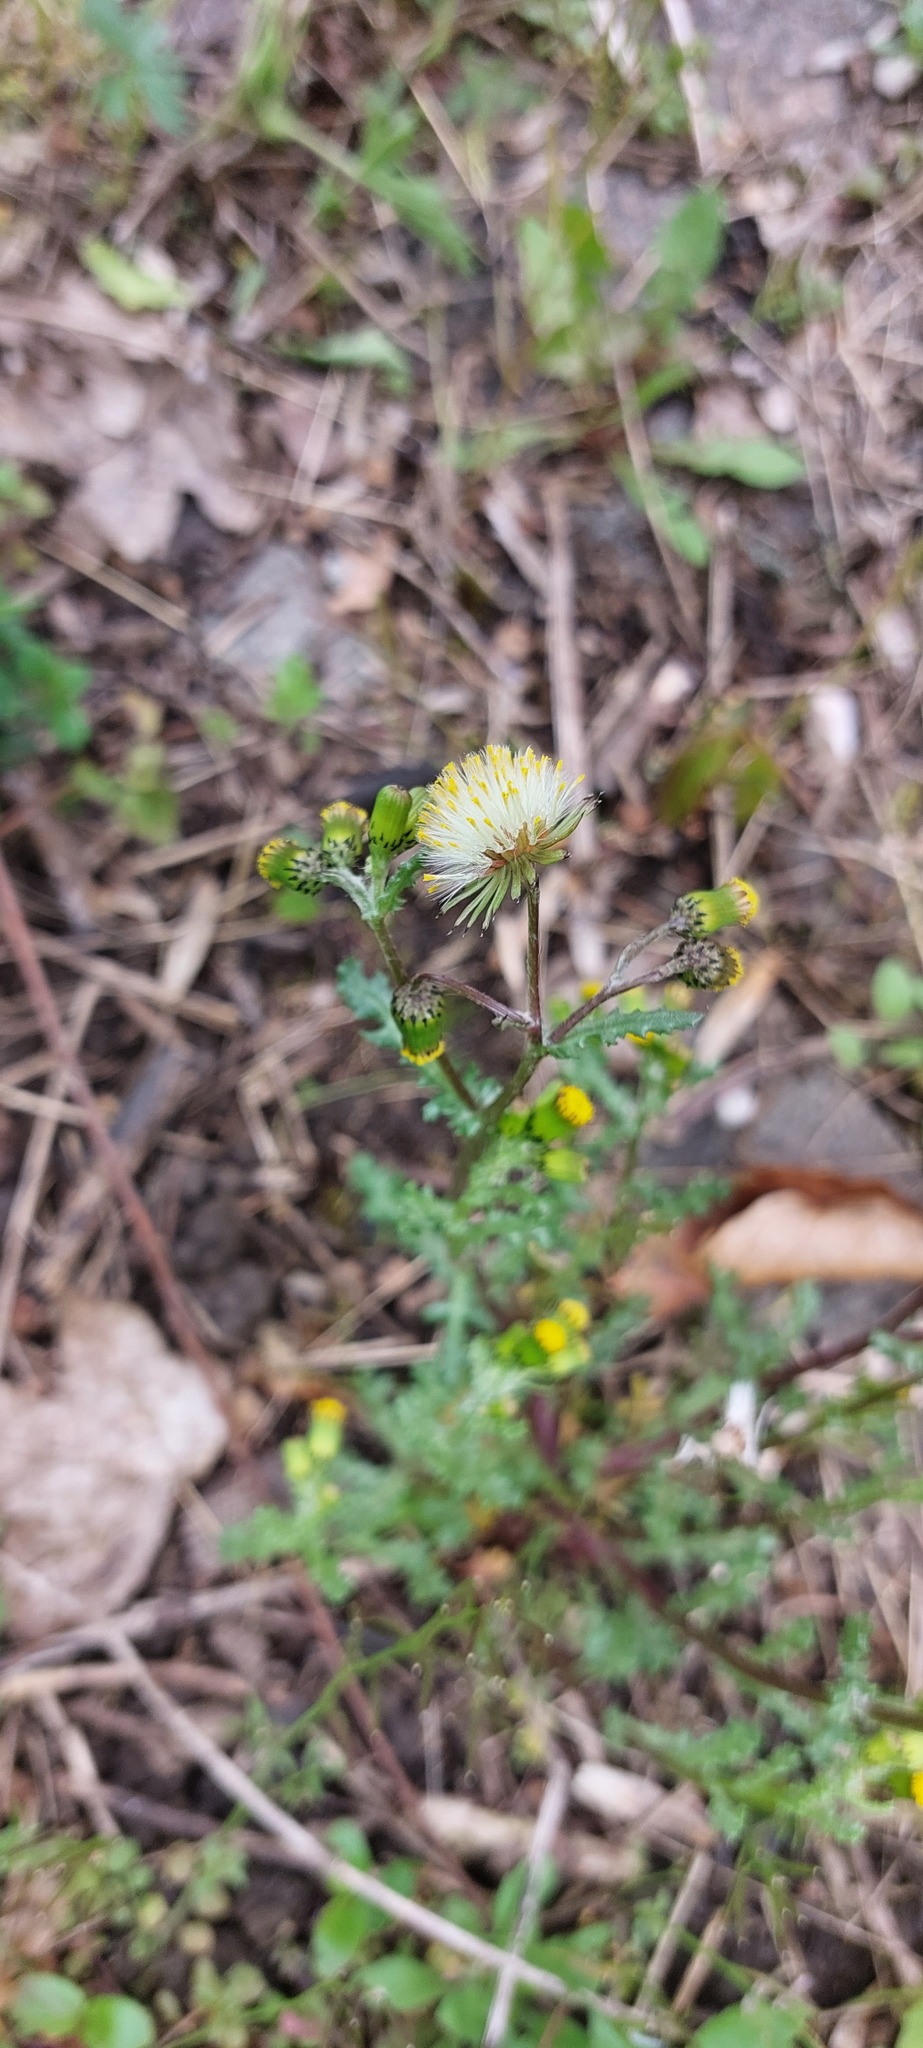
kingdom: Plantae
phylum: Tracheophyta
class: Magnoliopsida
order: Asterales
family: Asteraceae
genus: Senecio
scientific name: Senecio vulgaris
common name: Old-man-in-the-spring
